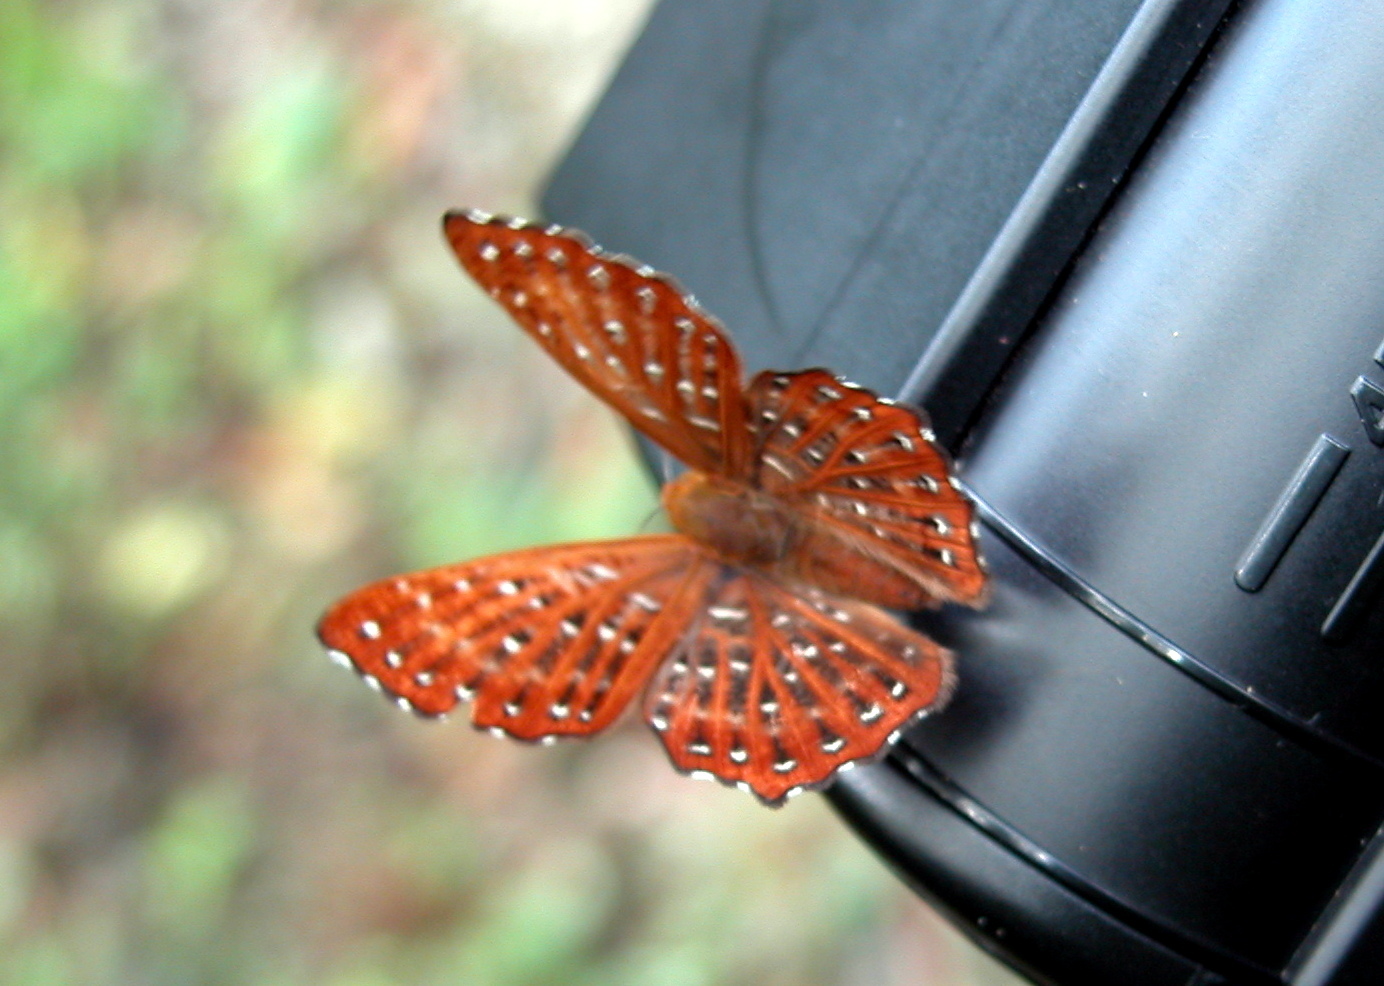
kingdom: Animalia
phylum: Arthropoda
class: Insecta
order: Lepidoptera
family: Riodinidae
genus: Zemeros
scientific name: Zemeros flegyas
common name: Punchinello
